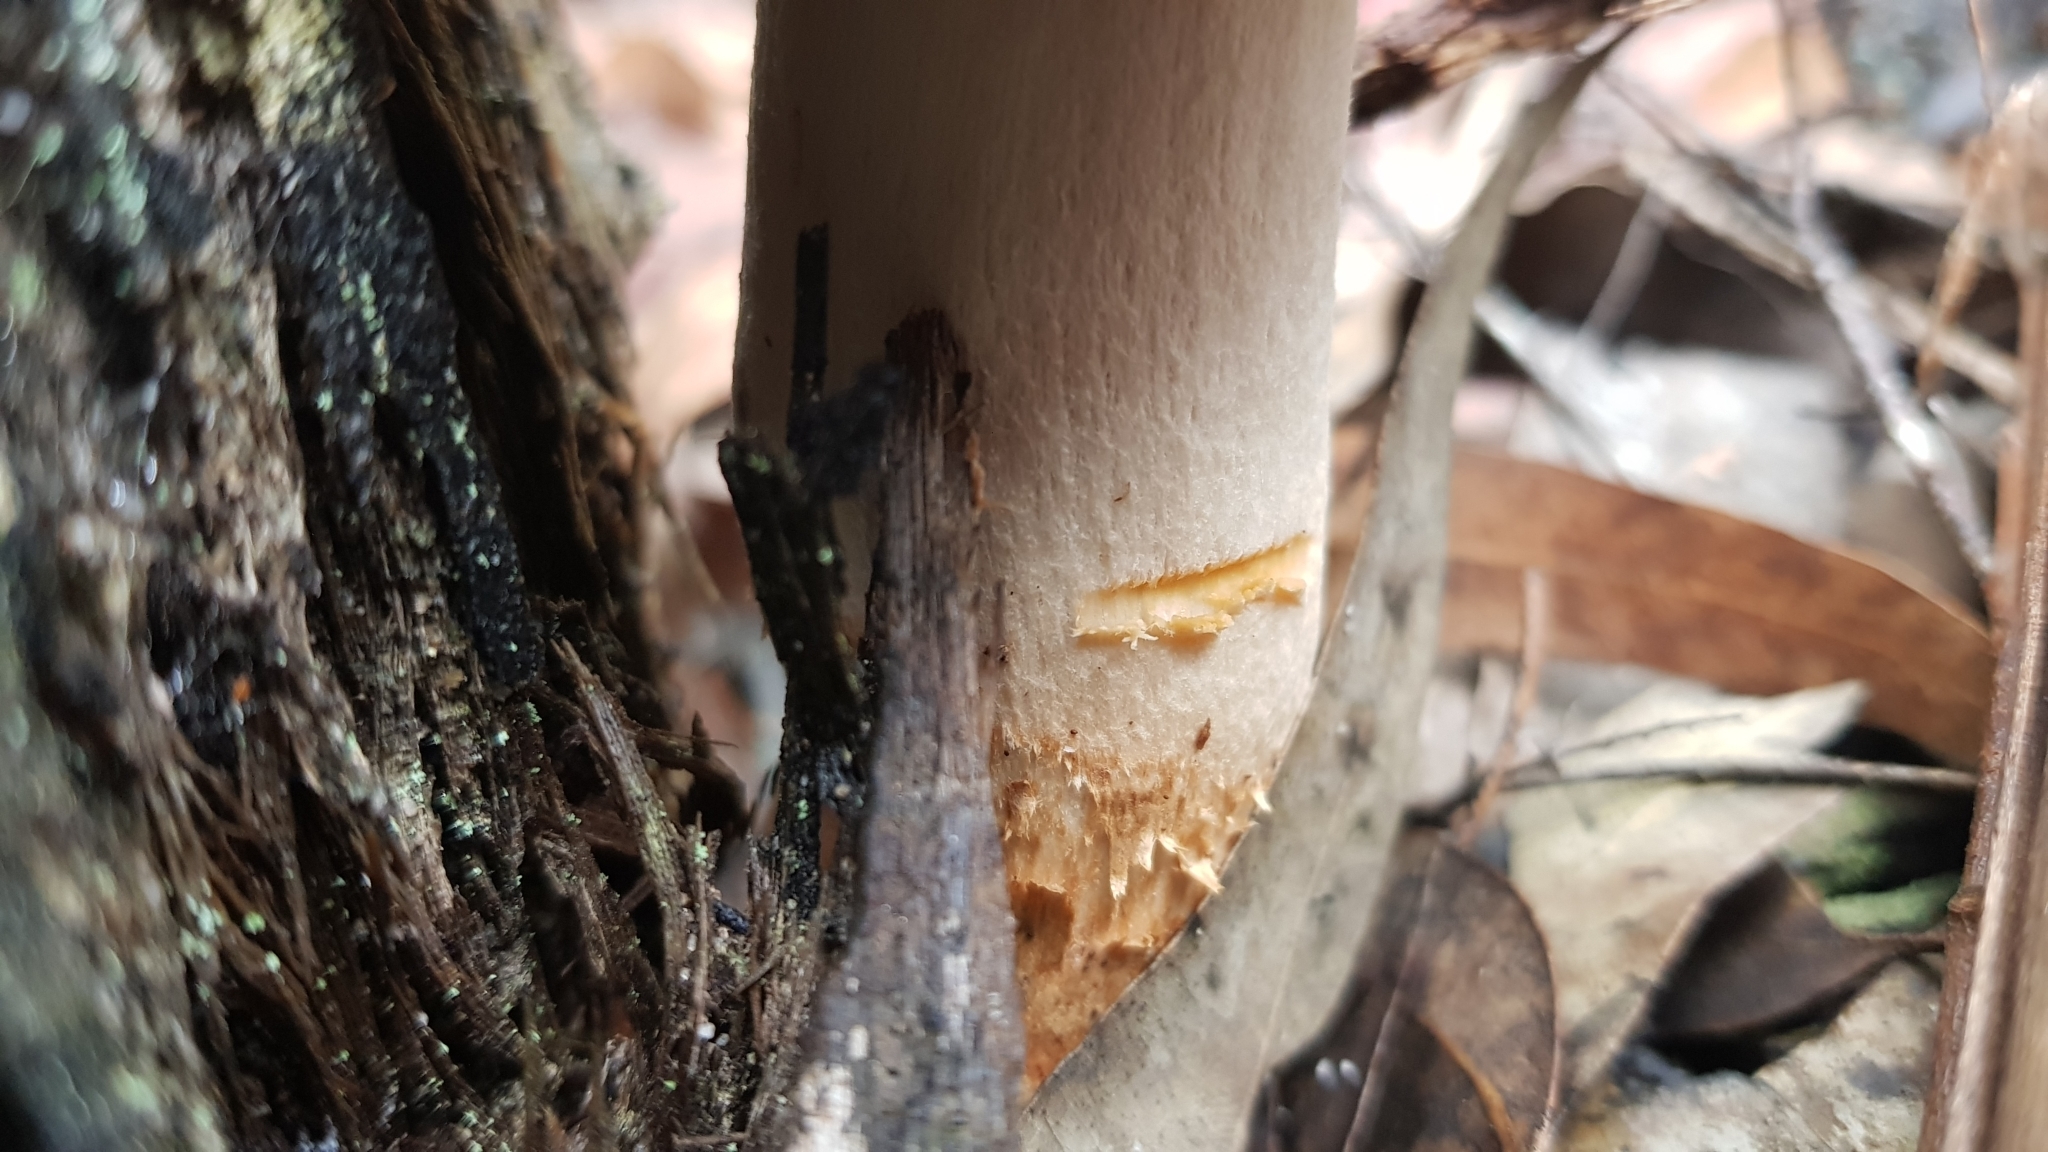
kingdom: Fungi
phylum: Basidiomycota
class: Agaricomycetes
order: Boletales
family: Boletaceae
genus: Boletellus
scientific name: Boletellus dissiliens
